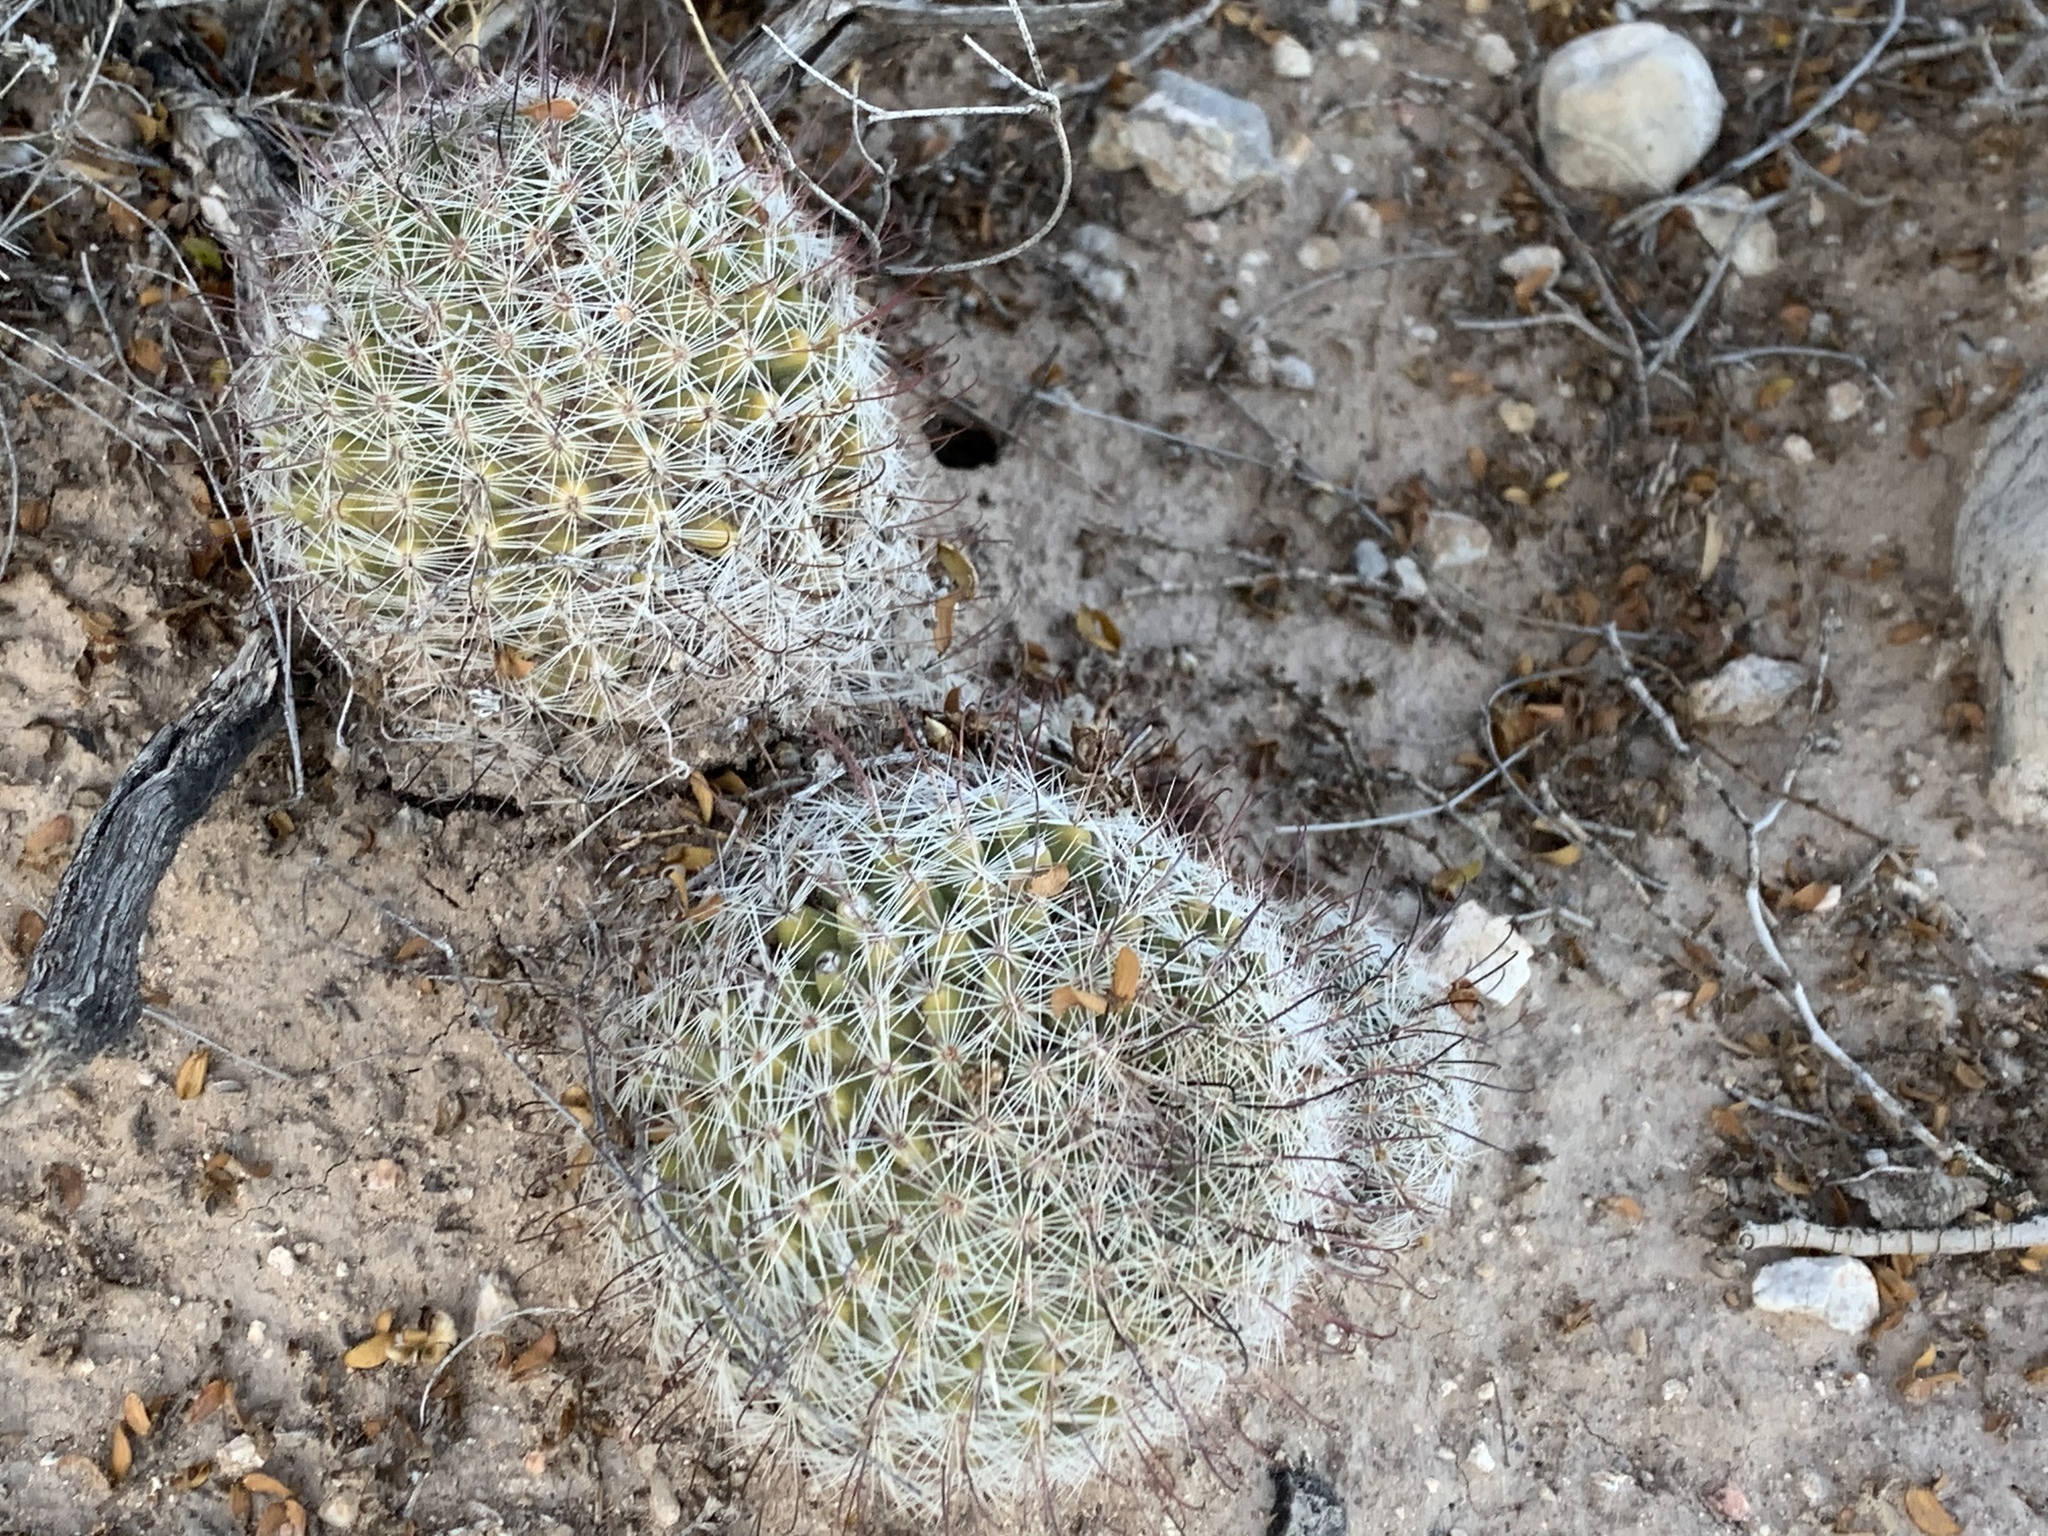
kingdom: Plantae
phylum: Tracheophyta
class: Magnoliopsida
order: Caryophyllales
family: Cactaceae
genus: Cochemiea
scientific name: Cochemiea grahamii
